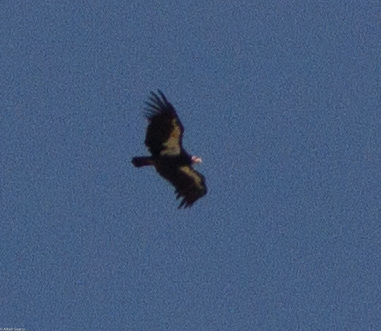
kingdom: Animalia
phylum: Chordata
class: Aves
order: Accipitriformes
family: Cathartidae
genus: Gymnogyps
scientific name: Gymnogyps californianus
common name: California condor
